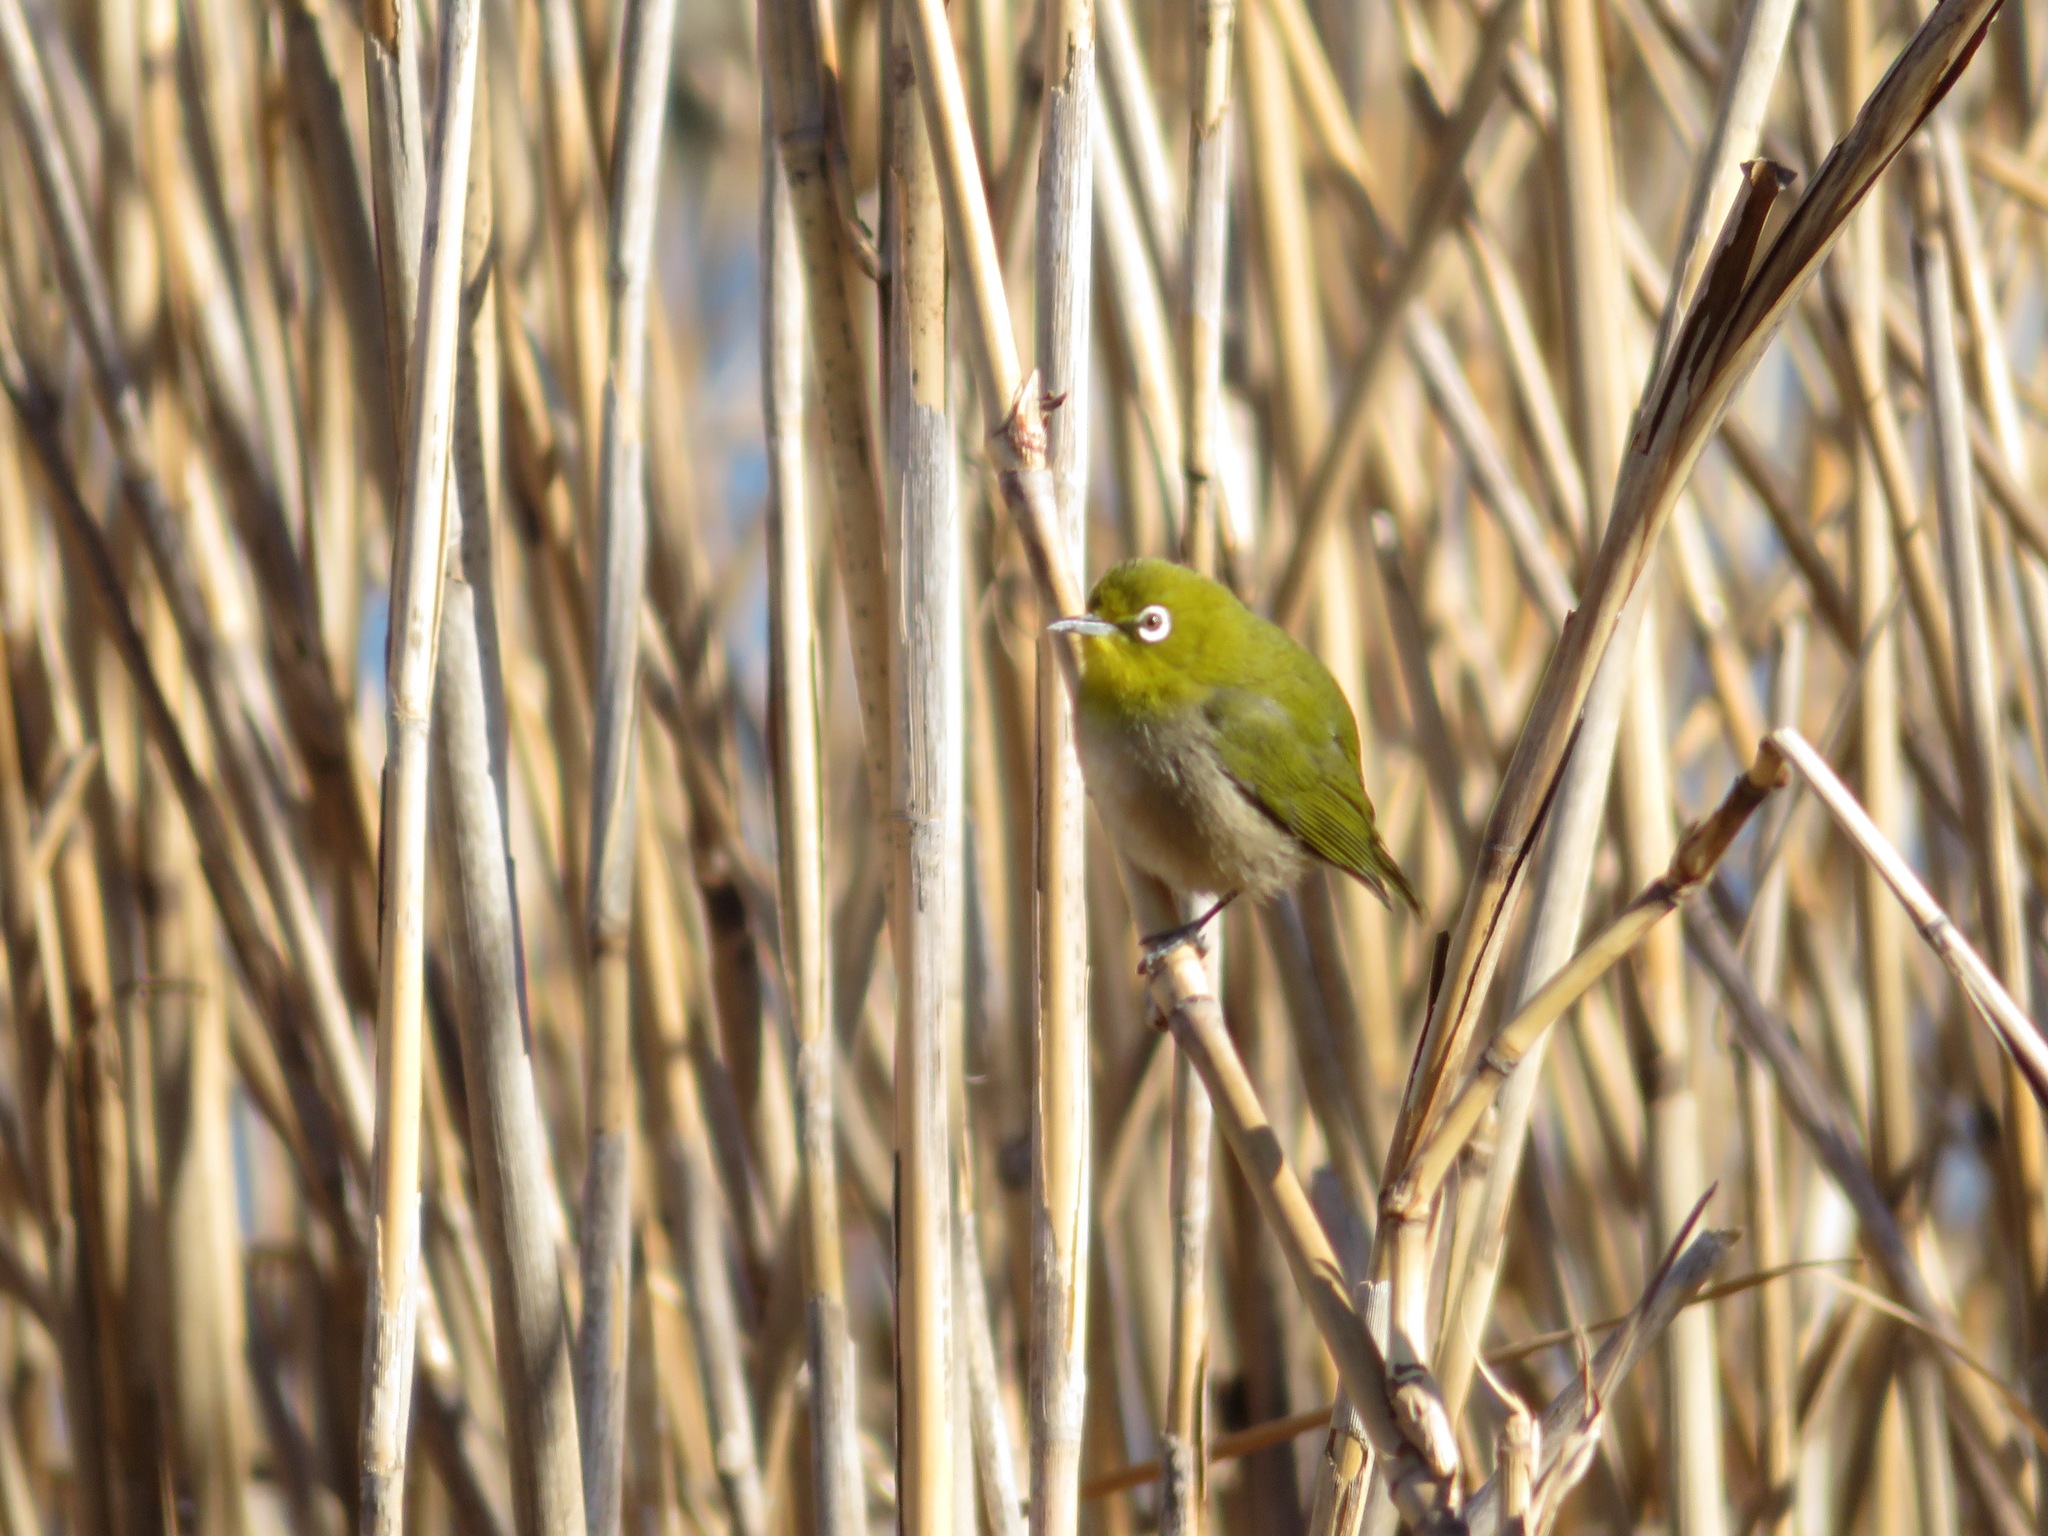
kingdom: Animalia
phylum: Chordata
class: Aves
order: Passeriformes
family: Zosteropidae
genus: Zosterops
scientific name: Zosterops japonicus
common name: Japanese white-eye
